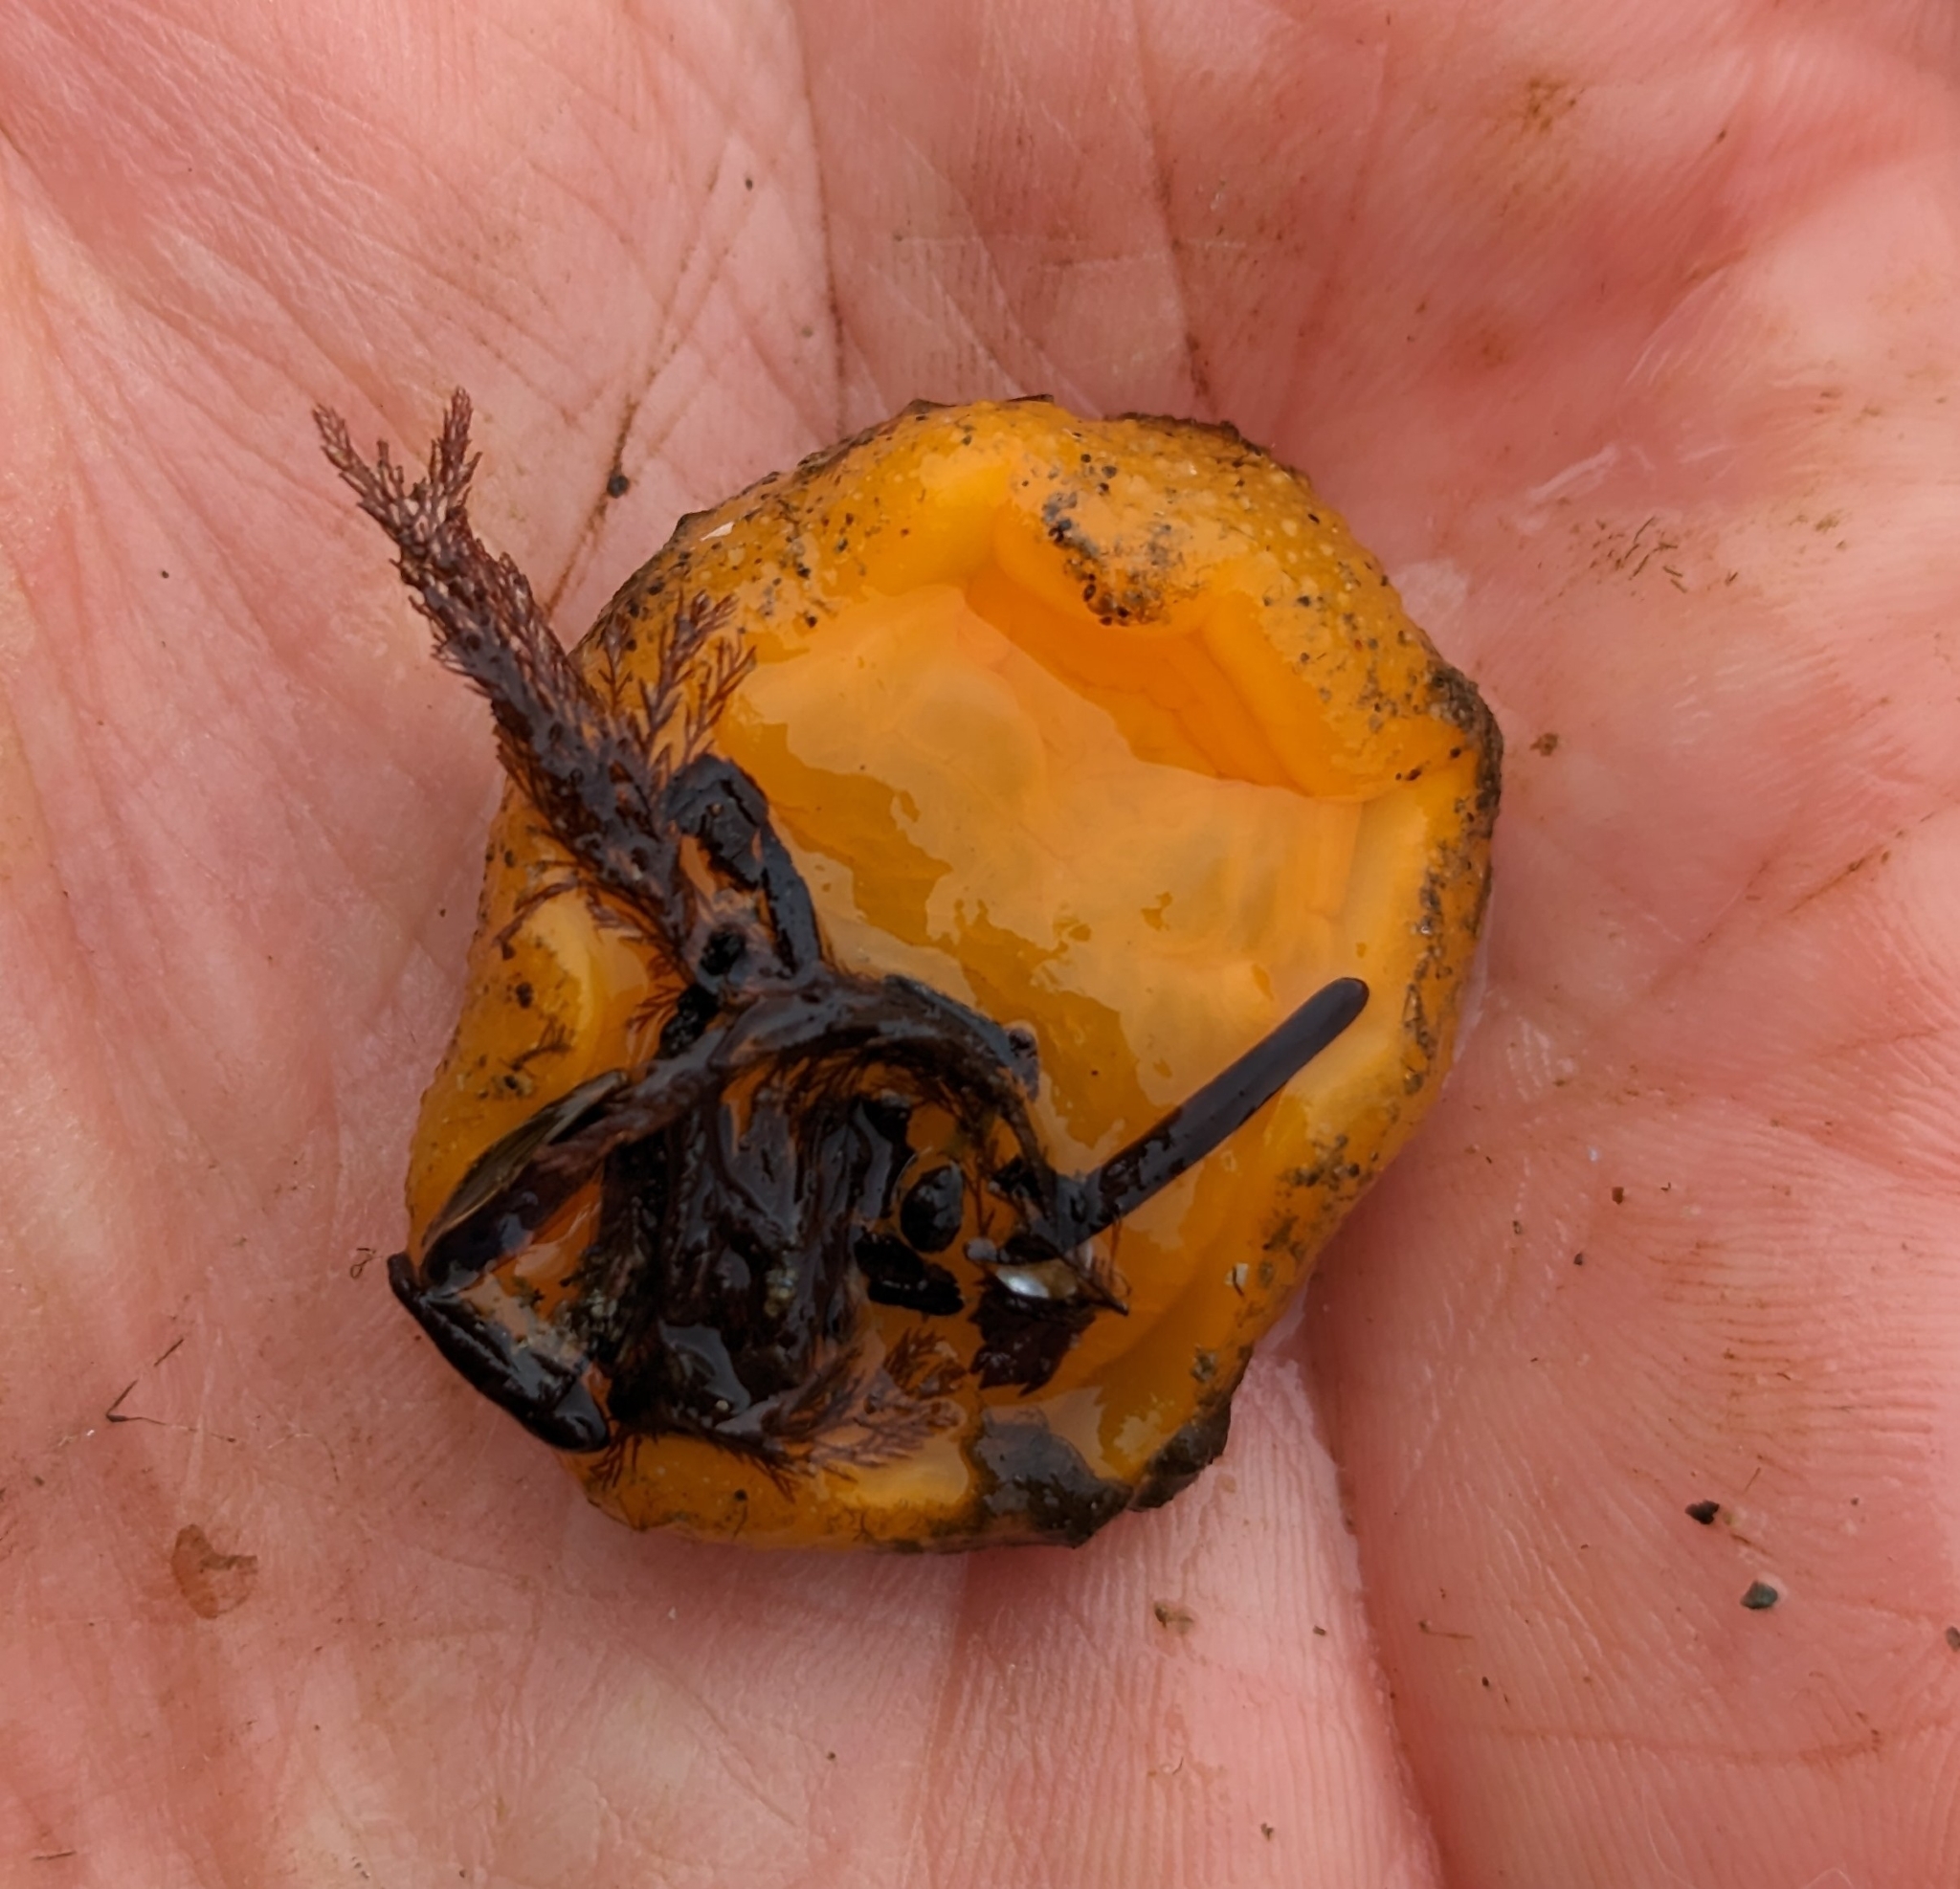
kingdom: Animalia
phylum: Mollusca
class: Gastropoda
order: Nudibranchia
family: Dorididae
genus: Doris
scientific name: Doris montereyensis
